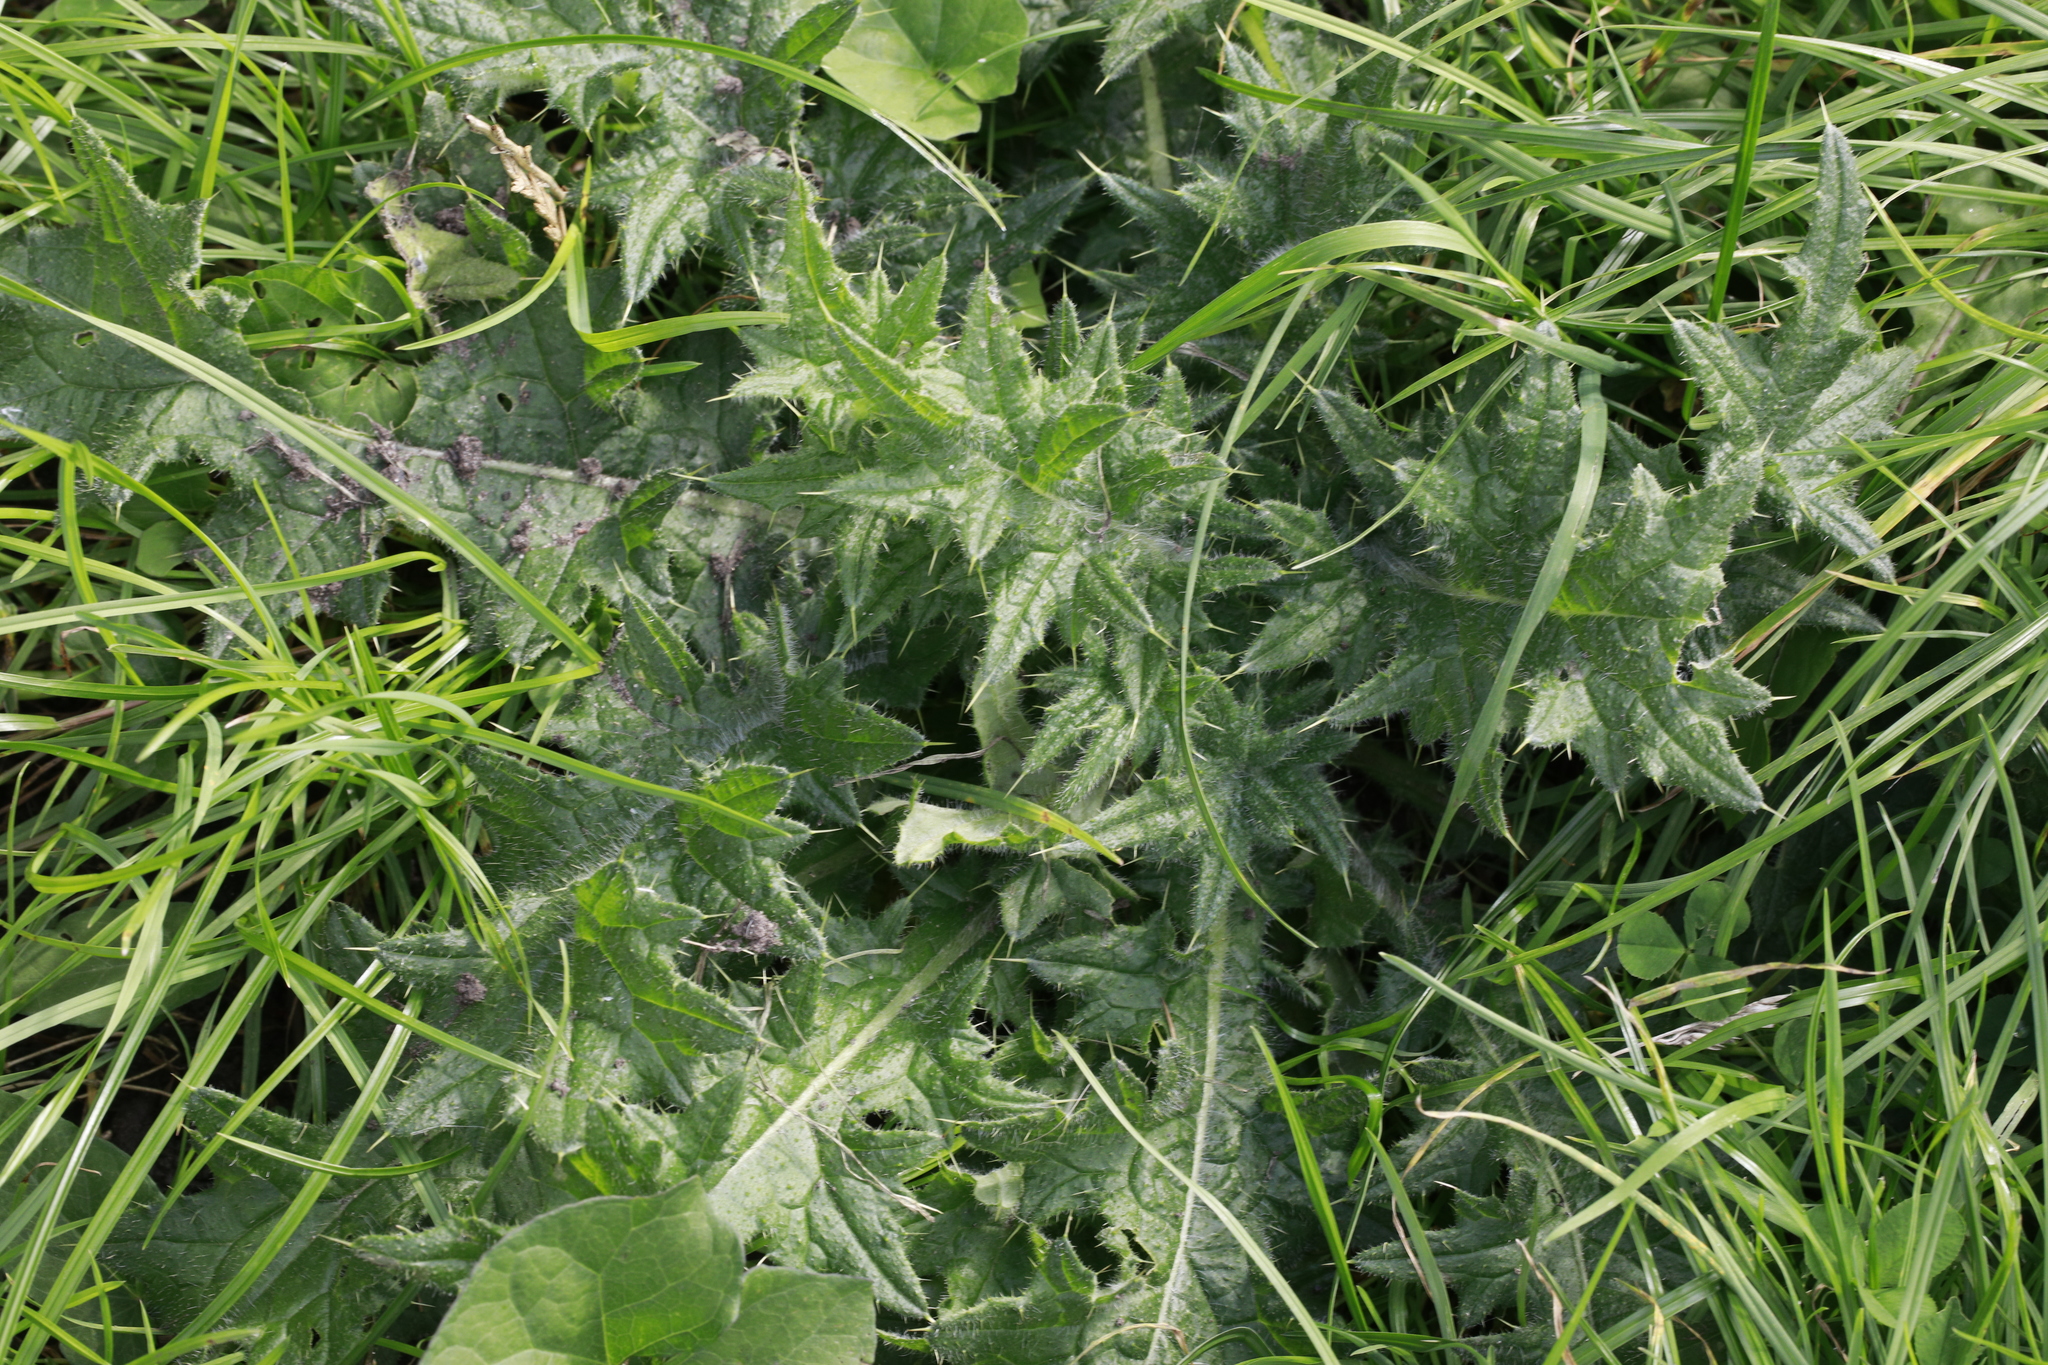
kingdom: Plantae
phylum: Tracheophyta
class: Magnoliopsida
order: Asterales
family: Asteraceae
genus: Cirsium
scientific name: Cirsium vulgare
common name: Bull thistle
